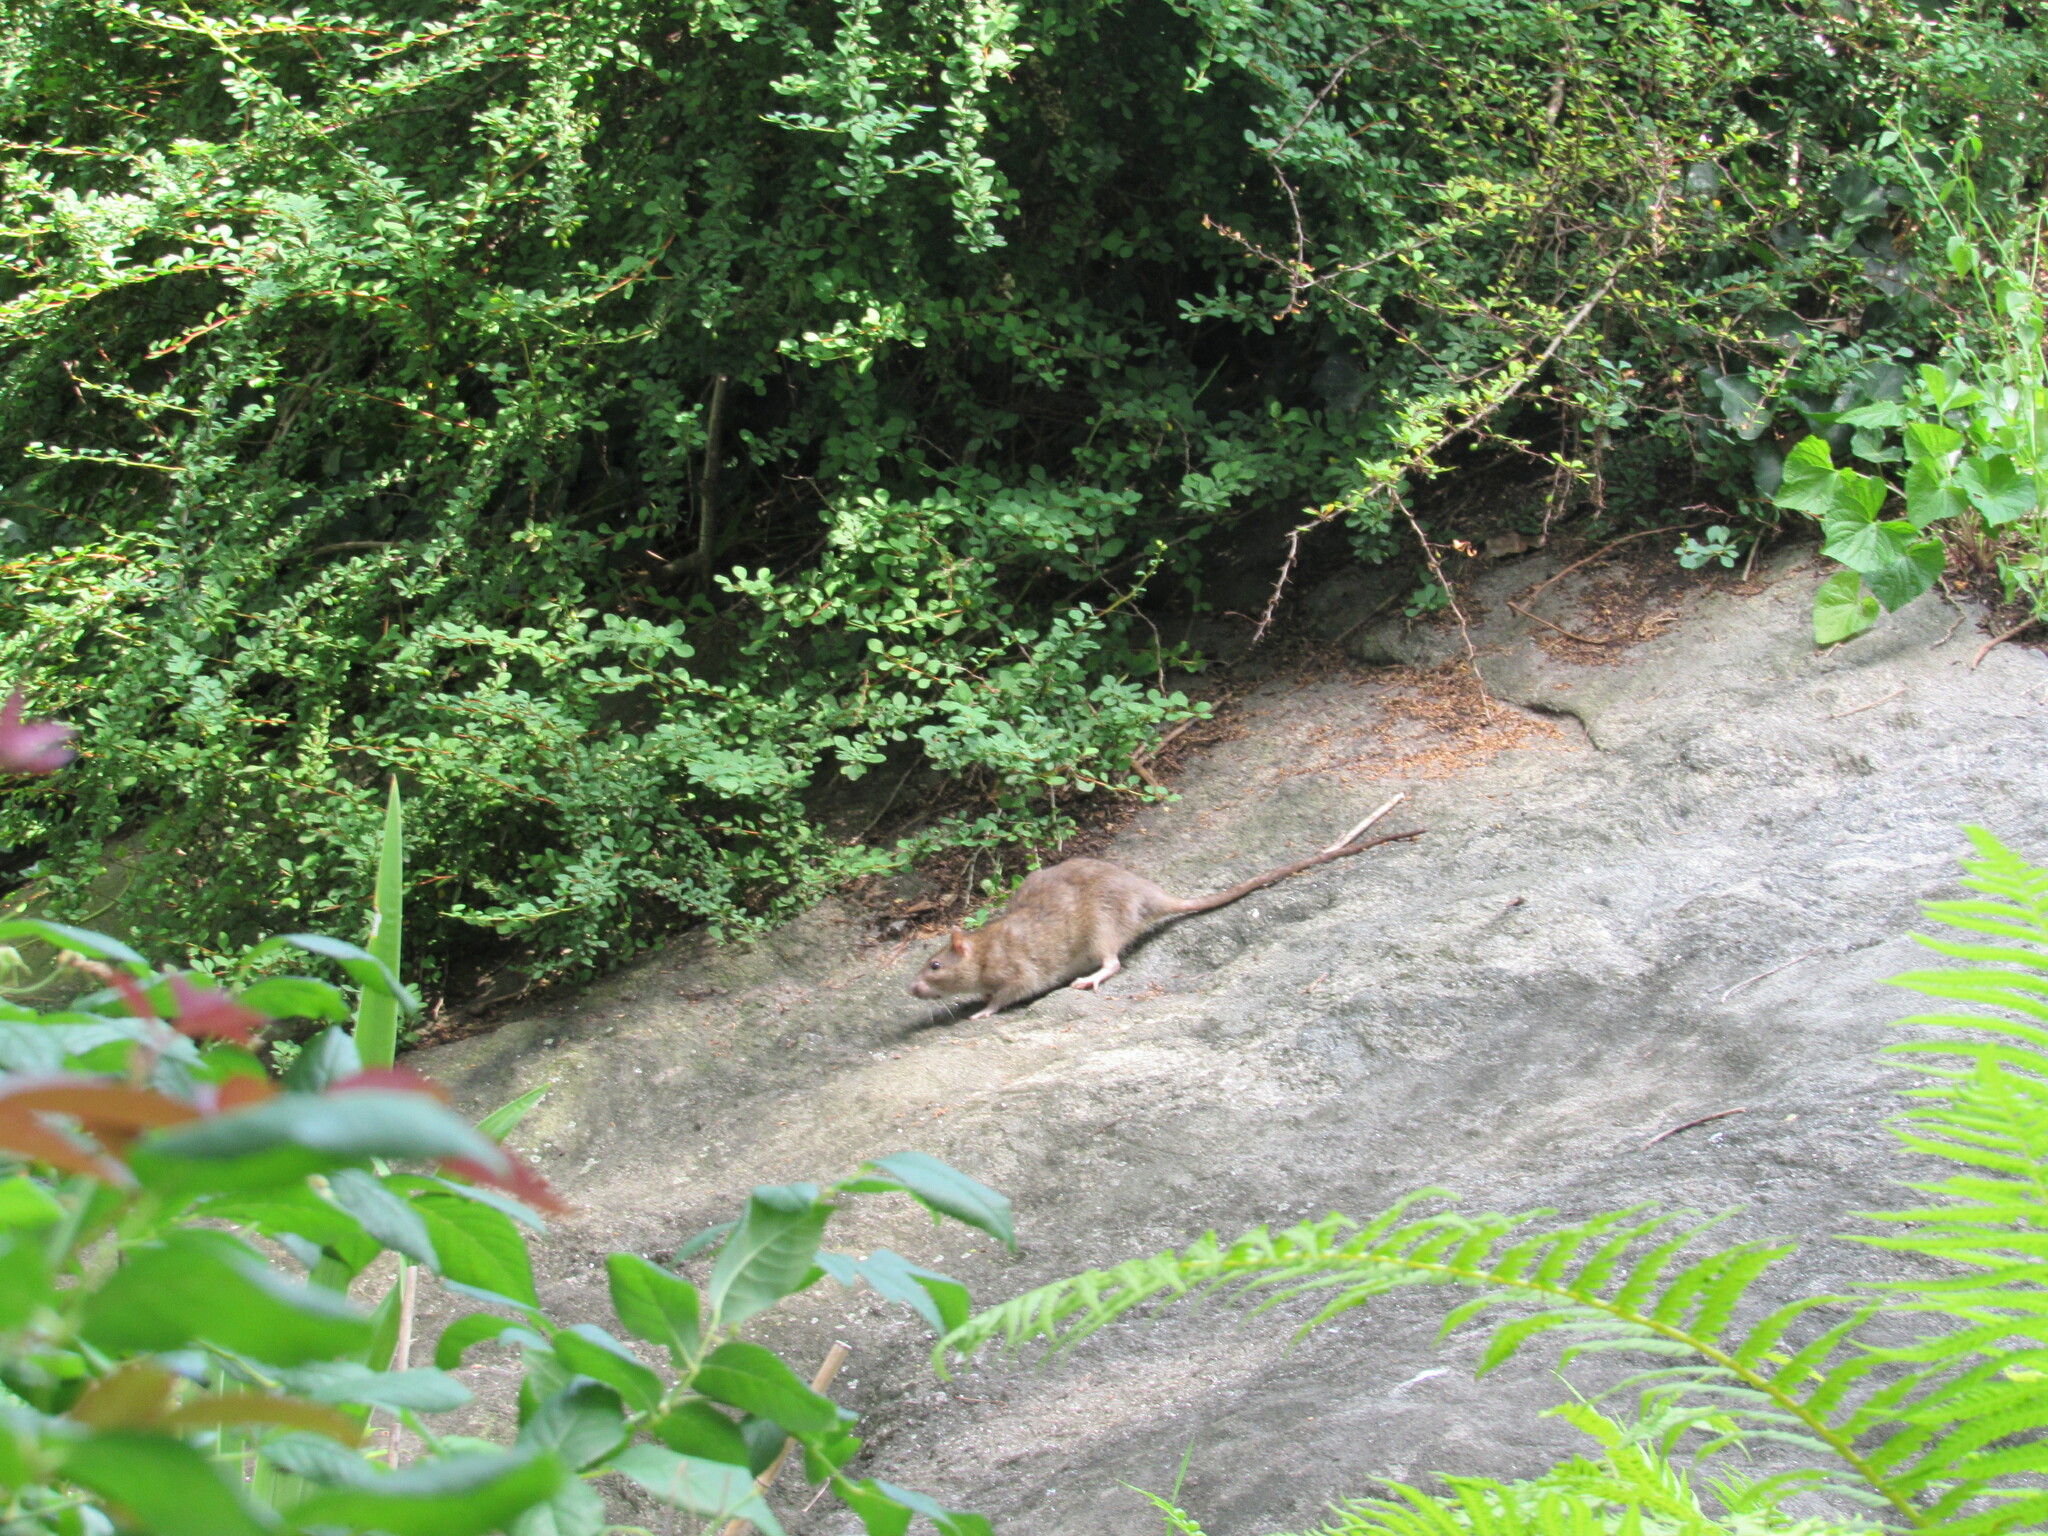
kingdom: Animalia
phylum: Chordata
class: Mammalia
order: Rodentia
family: Muridae
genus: Rattus
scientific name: Rattus norvegicus
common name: Brown rat
